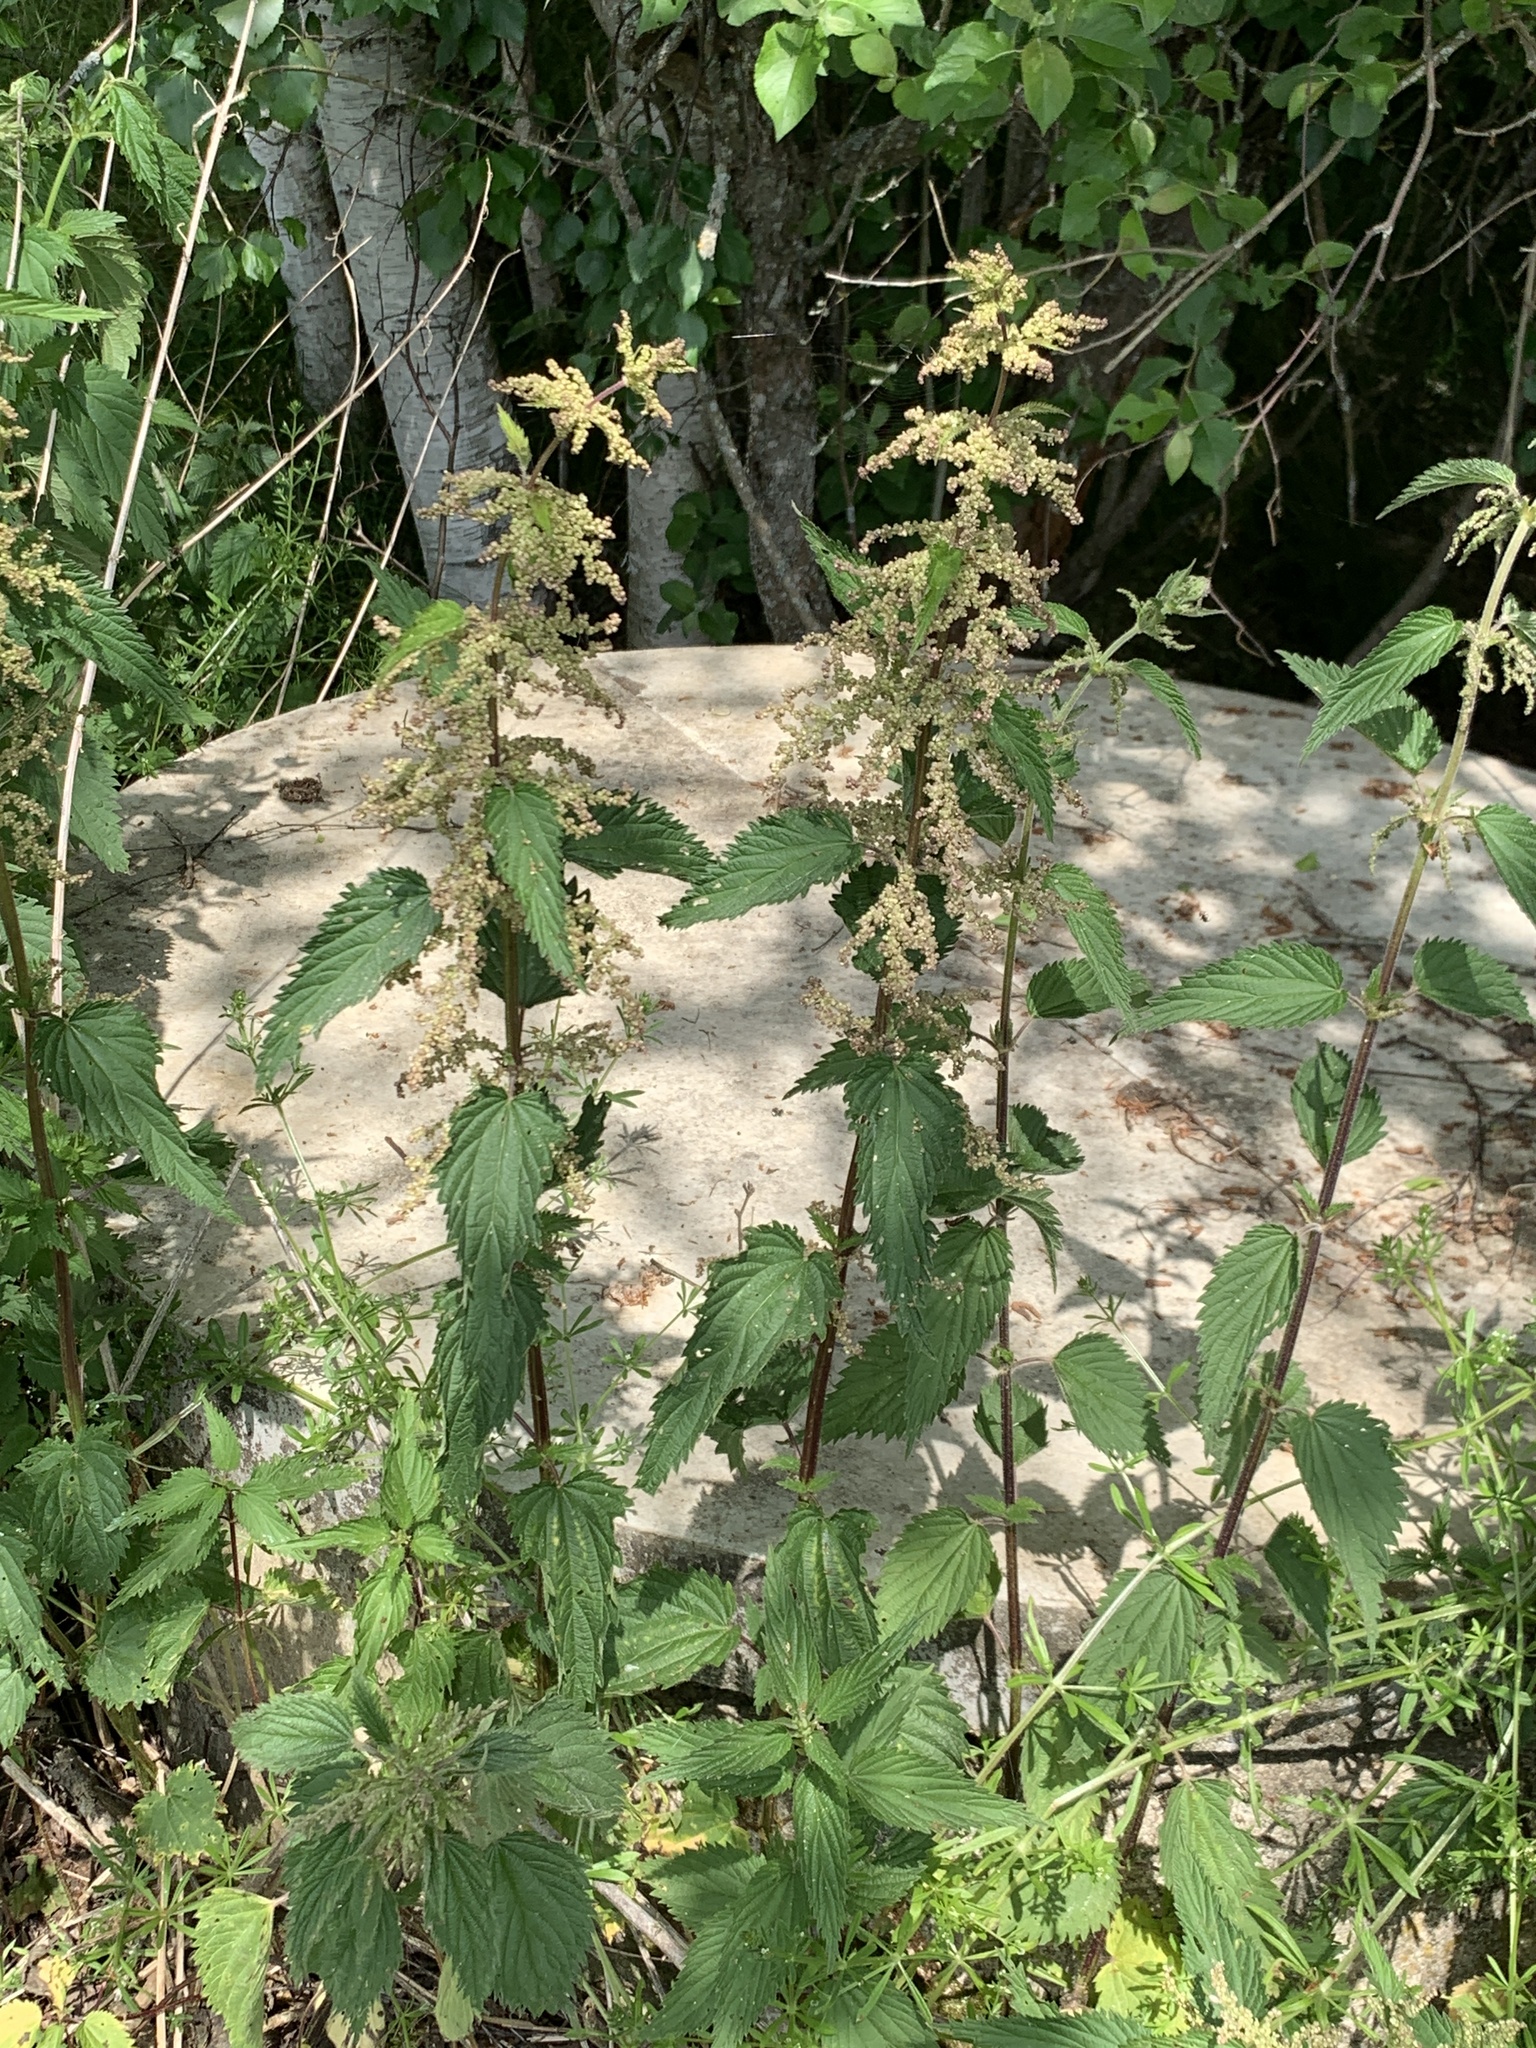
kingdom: Plantae
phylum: Tracheophyta
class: Magnoliopsida
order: Rosales
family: Urticaceae
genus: Urtica
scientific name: Urtica dioica
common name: Common nettle
